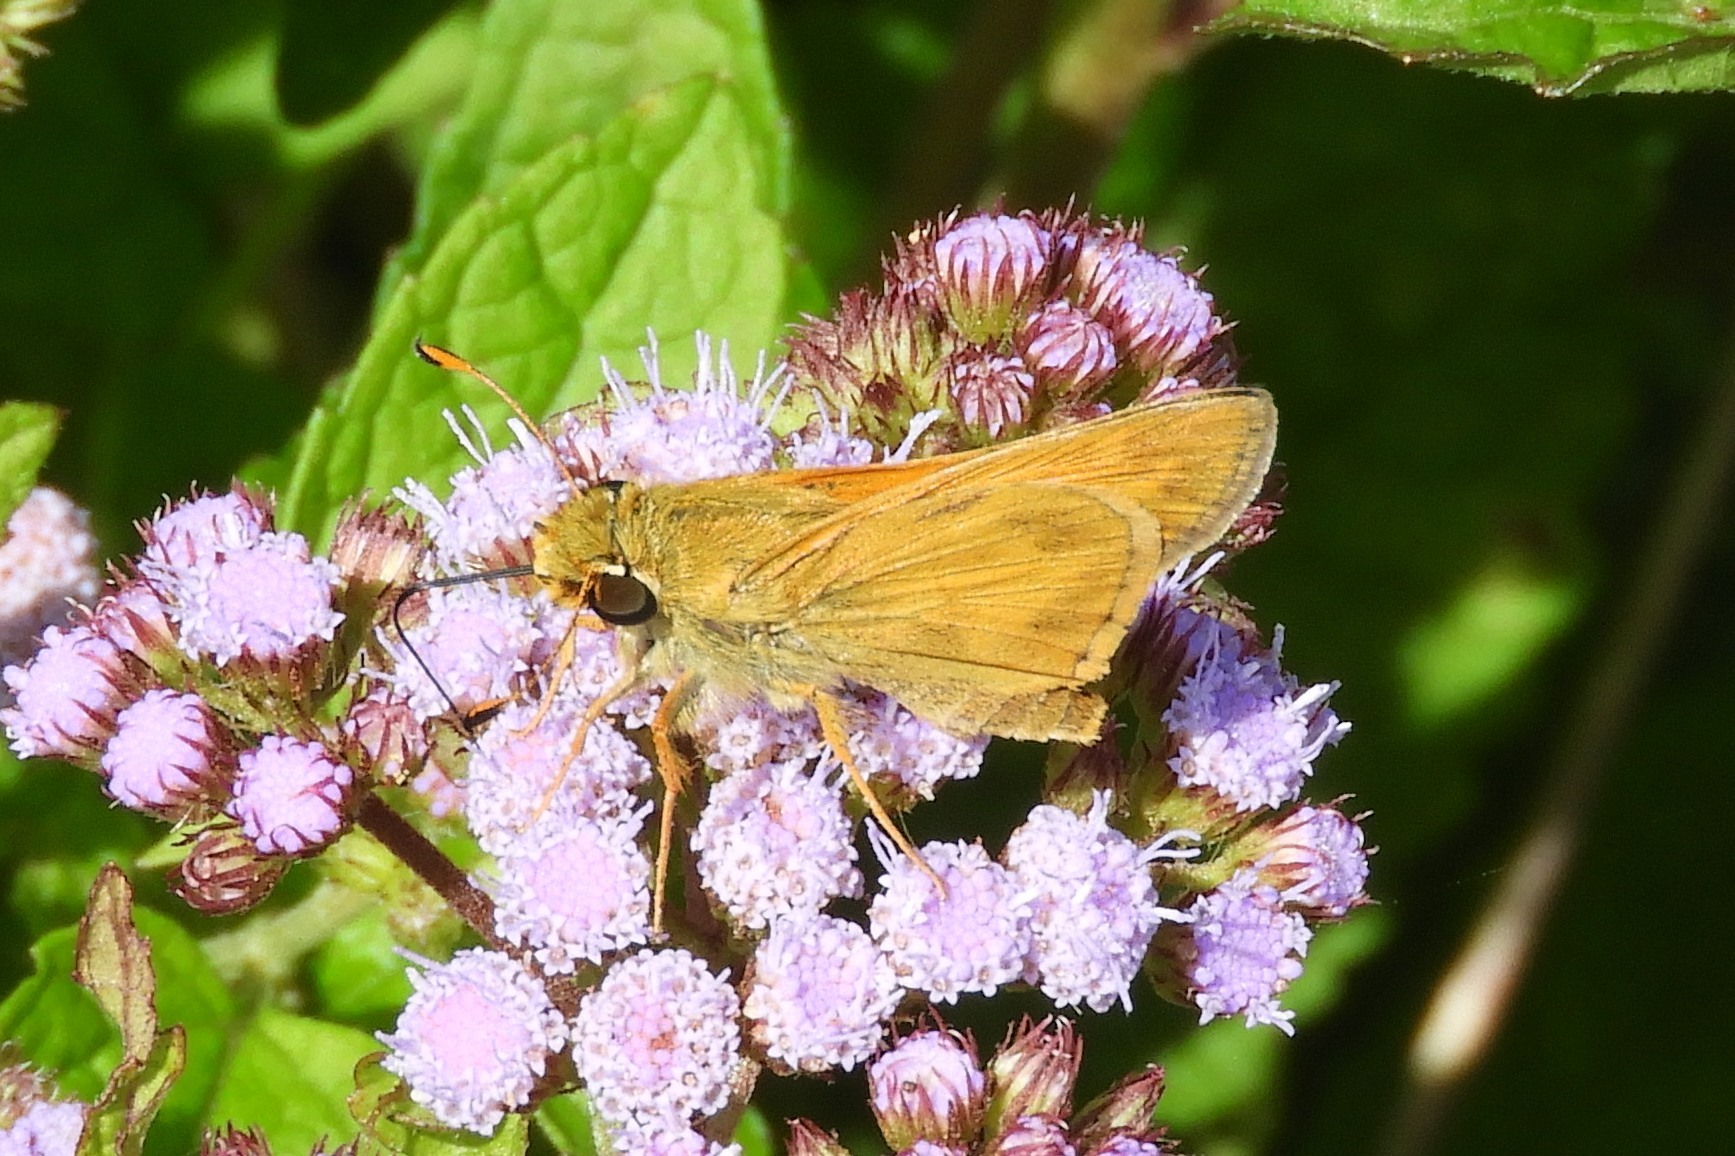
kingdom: Animalia
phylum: Arthropoda
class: Insecta
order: Lepidoptera
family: Hesperiidae
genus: Atalopedes
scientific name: Atalopedes
